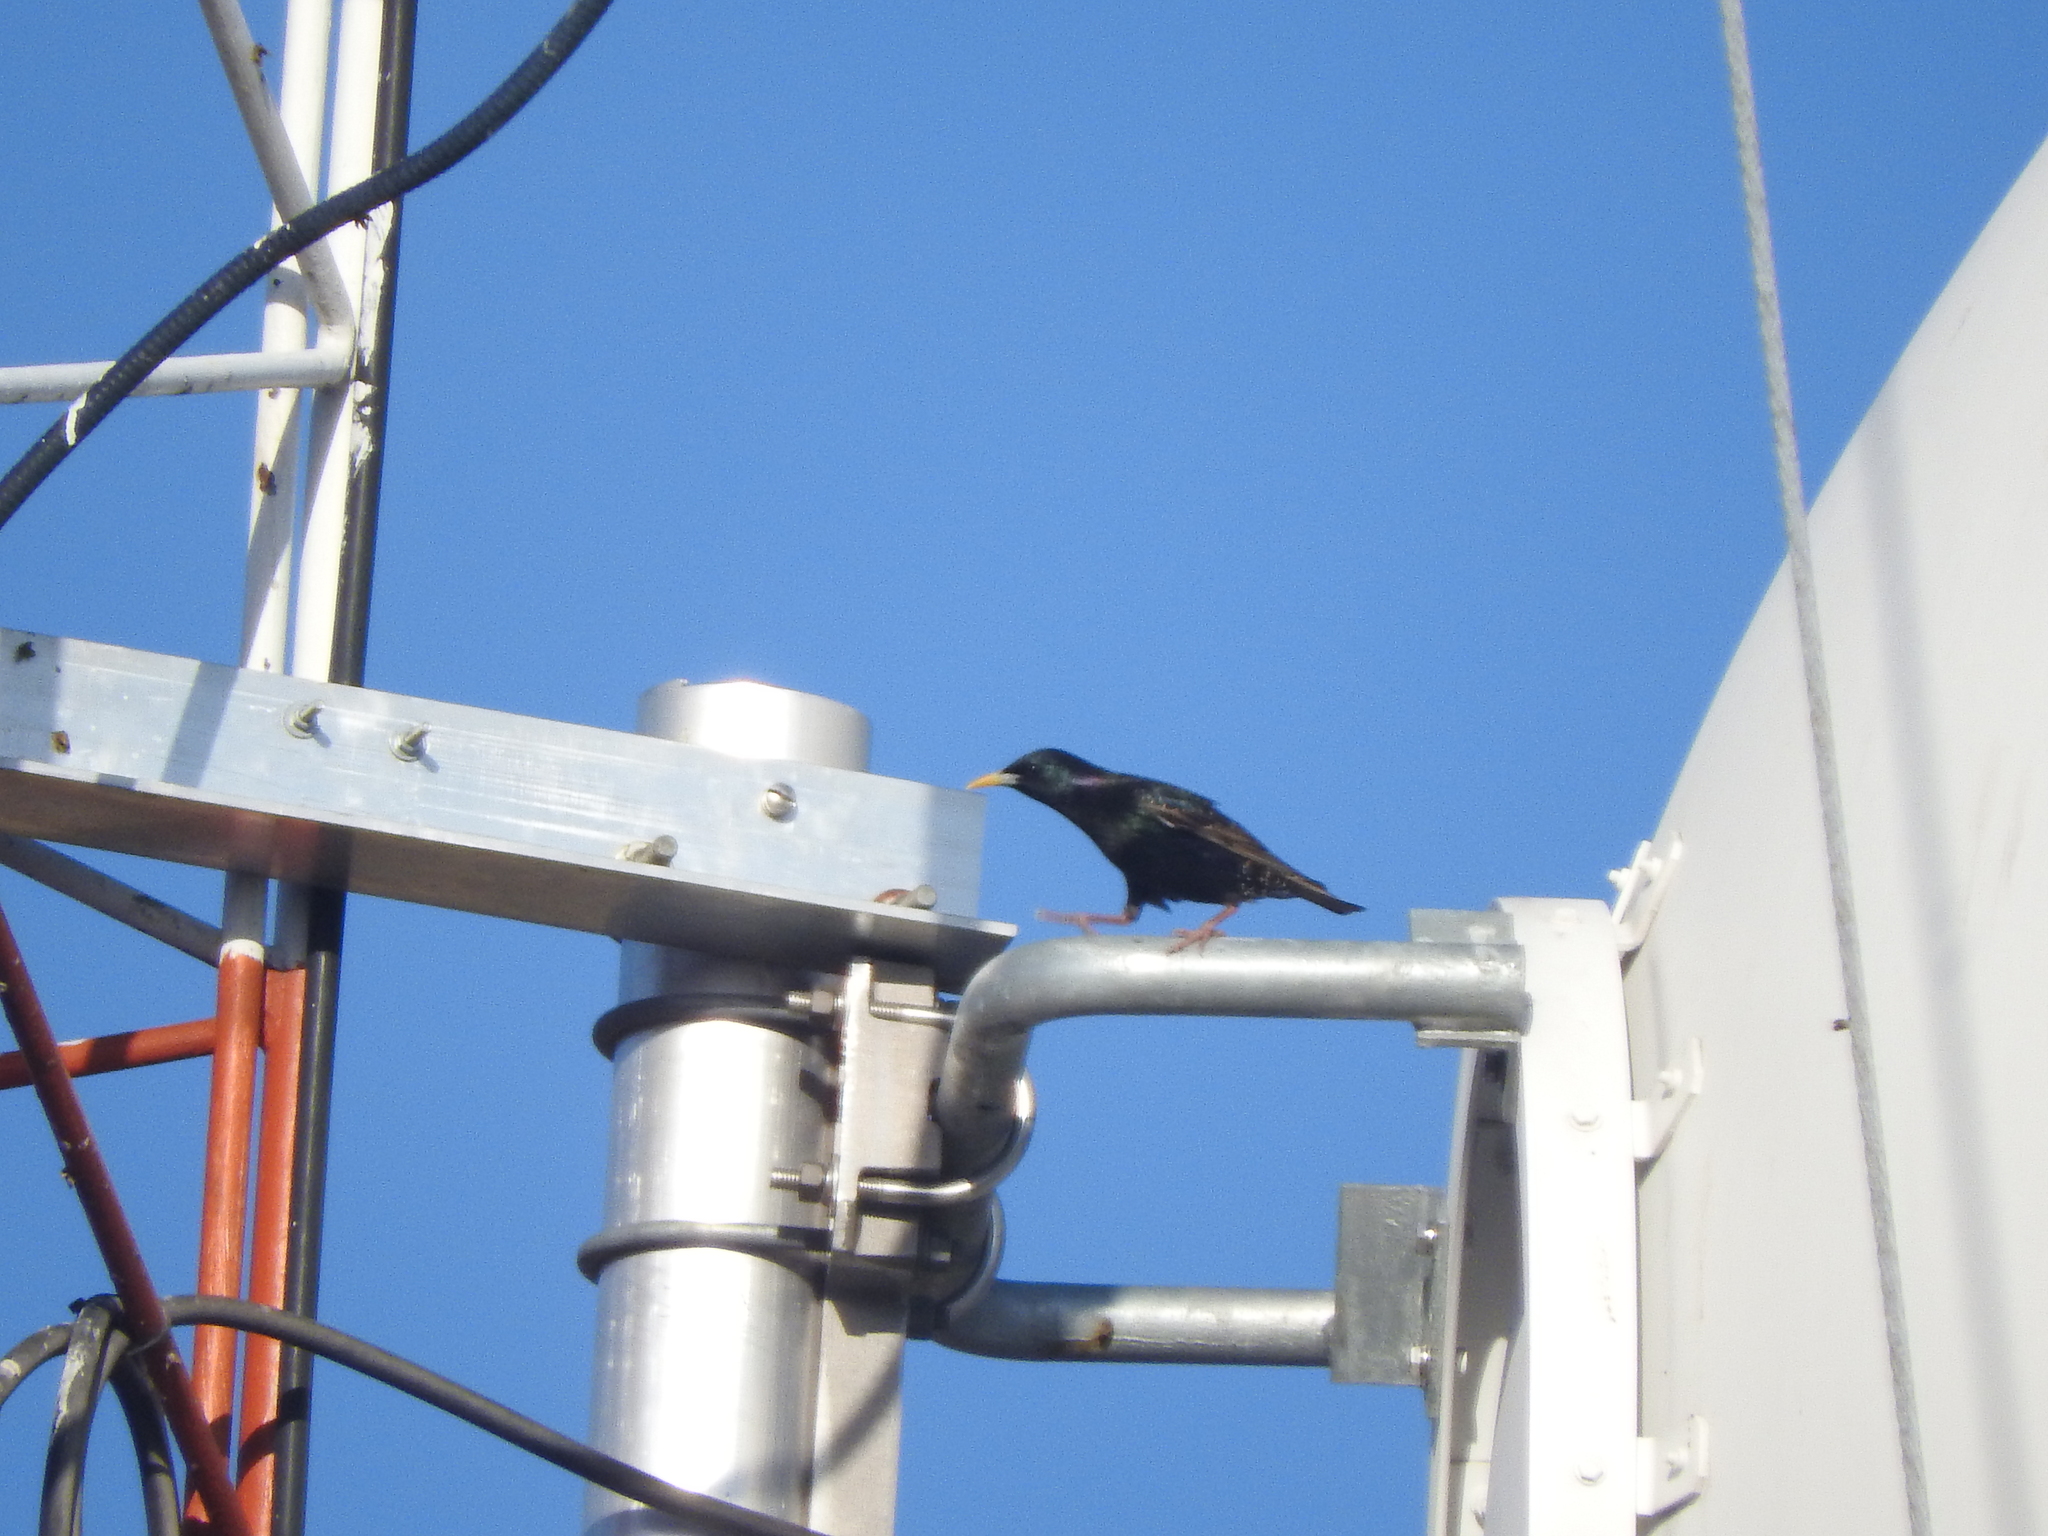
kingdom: Animalia
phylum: Chordata
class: Aves
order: Passeriformes
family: Sturnidae
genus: Sturnus
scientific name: Sturnus vulgaris
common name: Common starling
